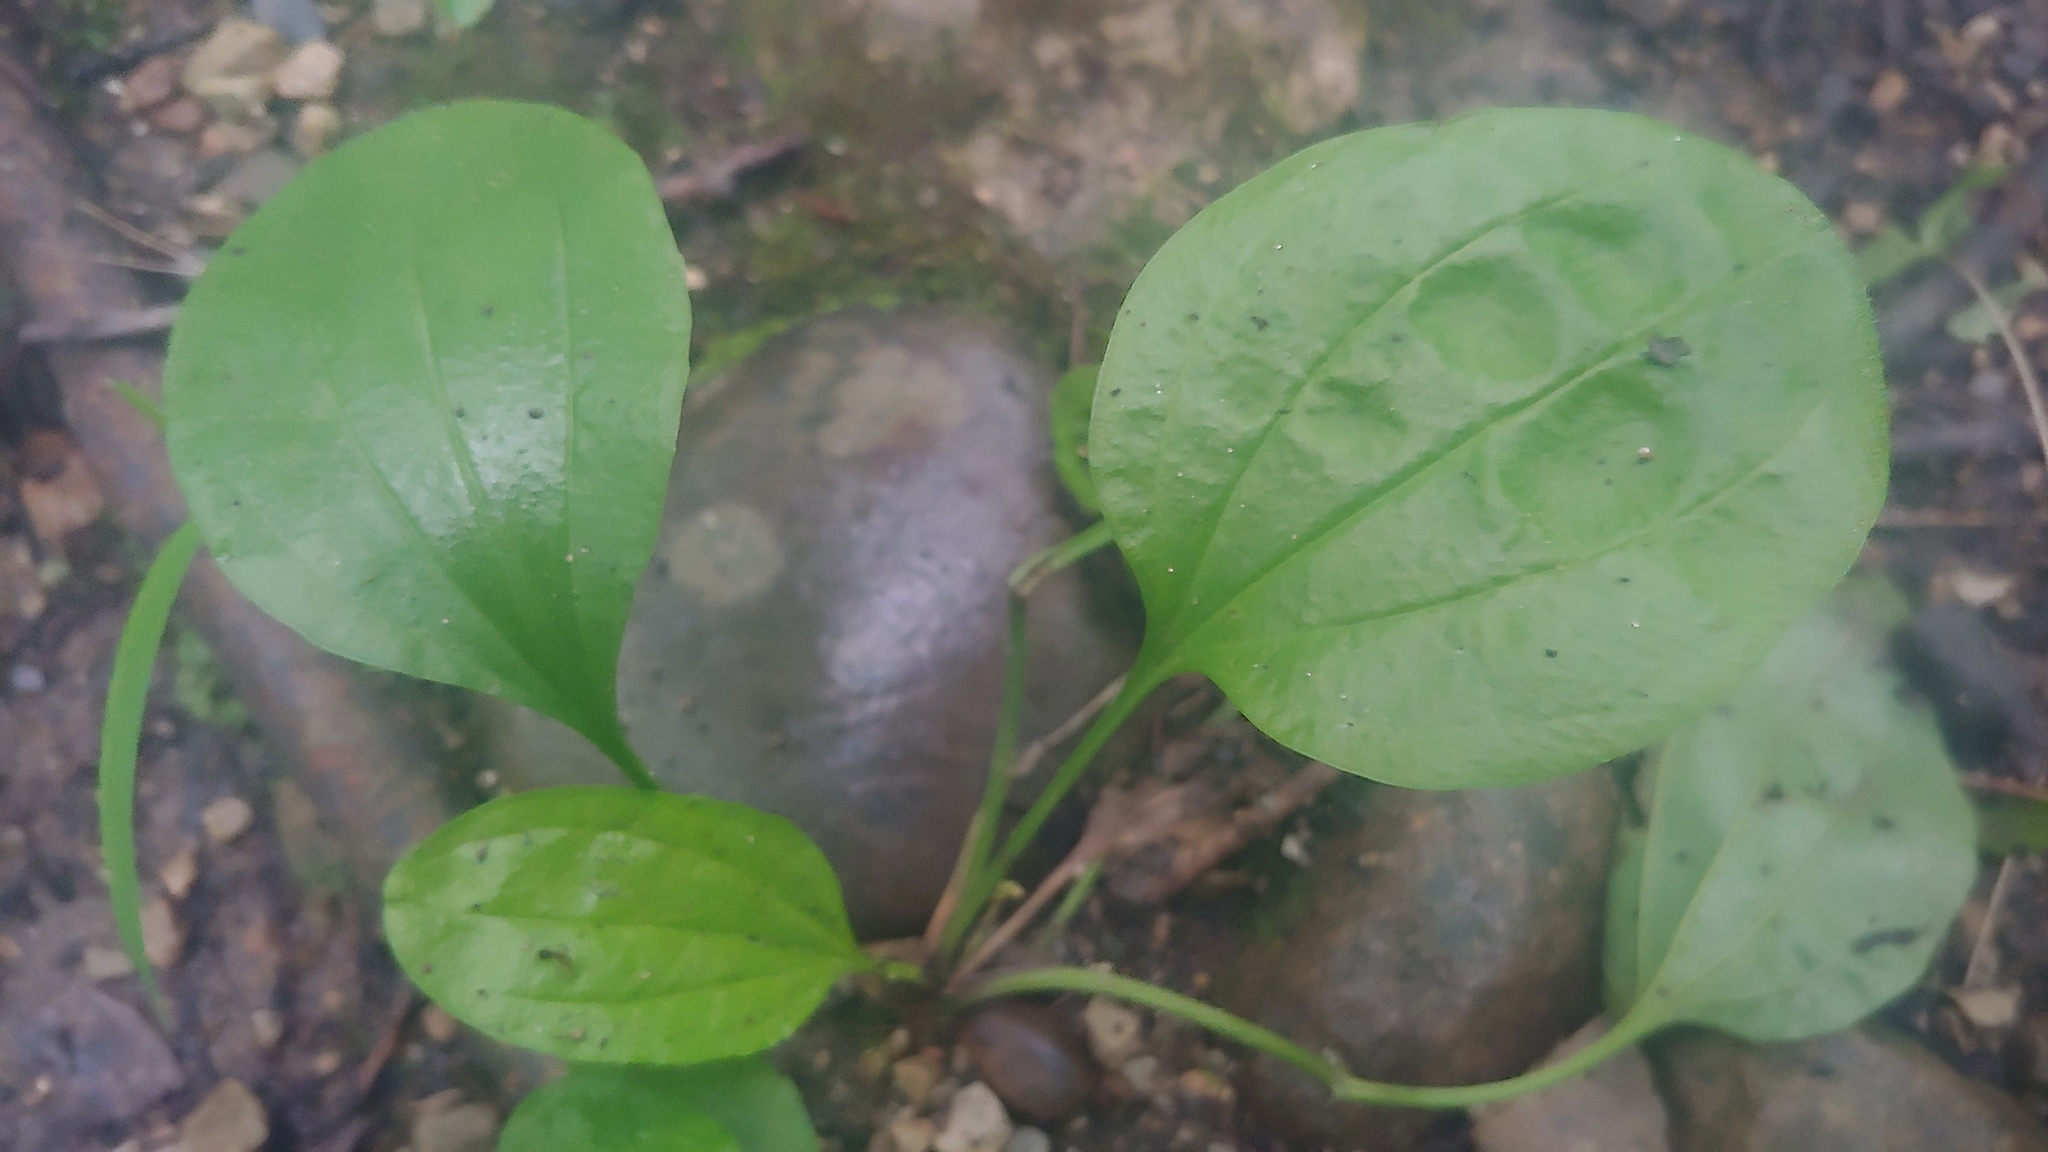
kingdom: Plantae
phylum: Tracheophyta
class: Magnoliopsida
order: Lamiales
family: Plantaginaceae
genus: Plantago
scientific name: Plantago rugelii
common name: American plantain
